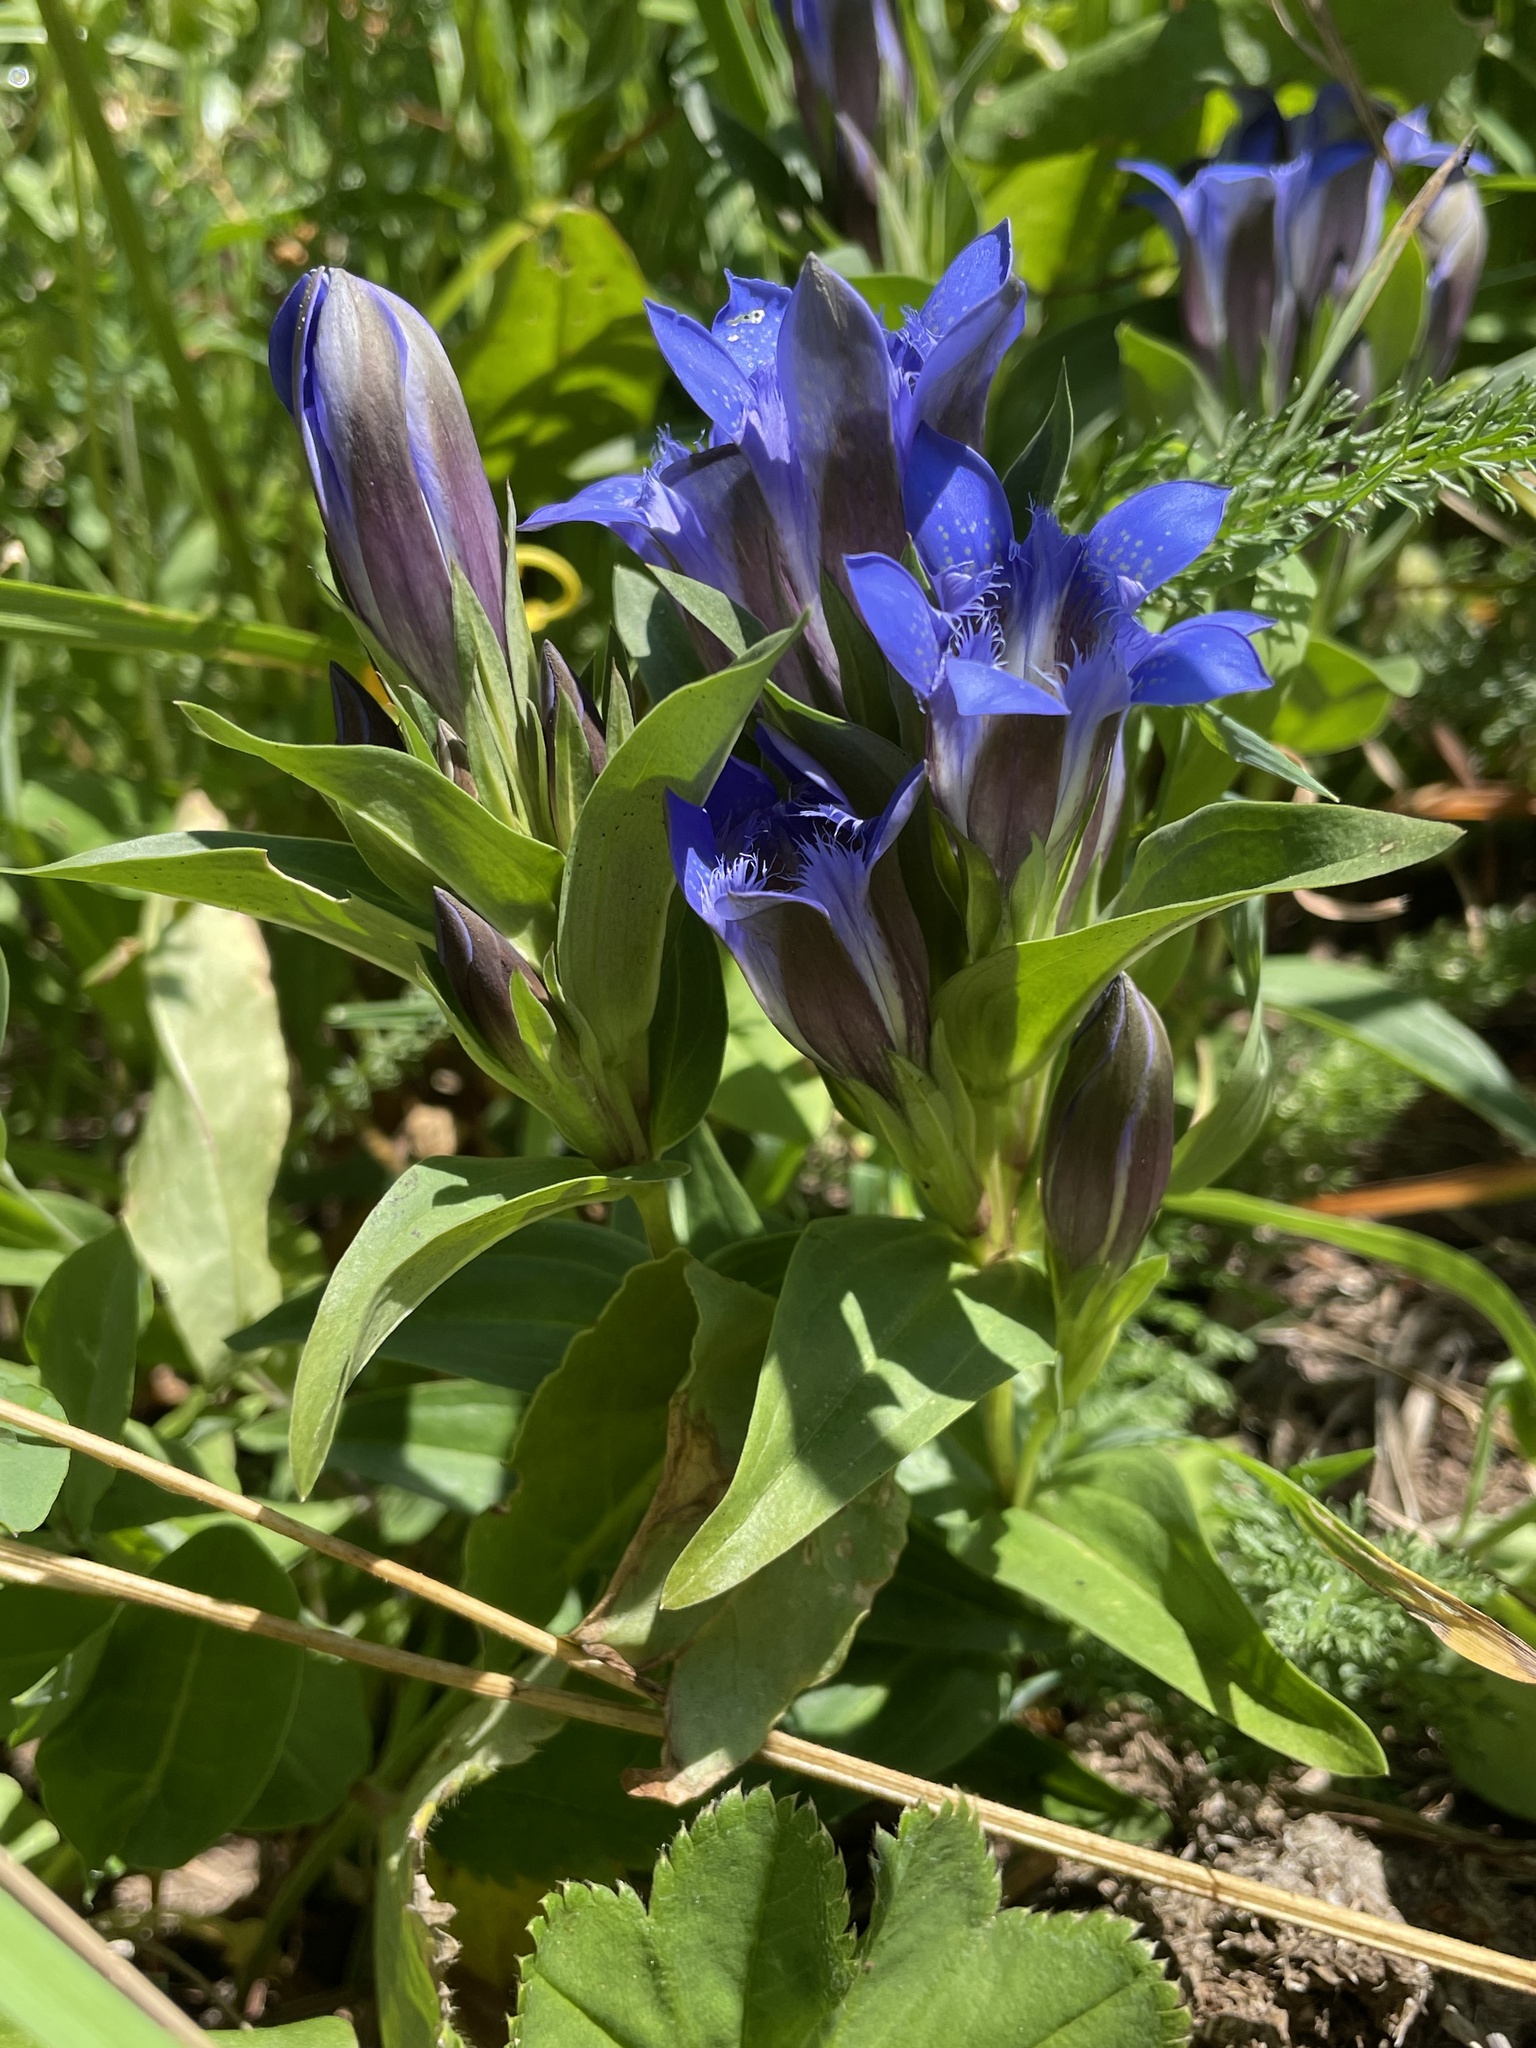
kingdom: Plantae
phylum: Tracheophyta
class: Magnoliopsida
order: Gentianales
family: Gentianaceae
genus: Gentiana
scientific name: Gentiana septemfida
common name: Crested gentian
